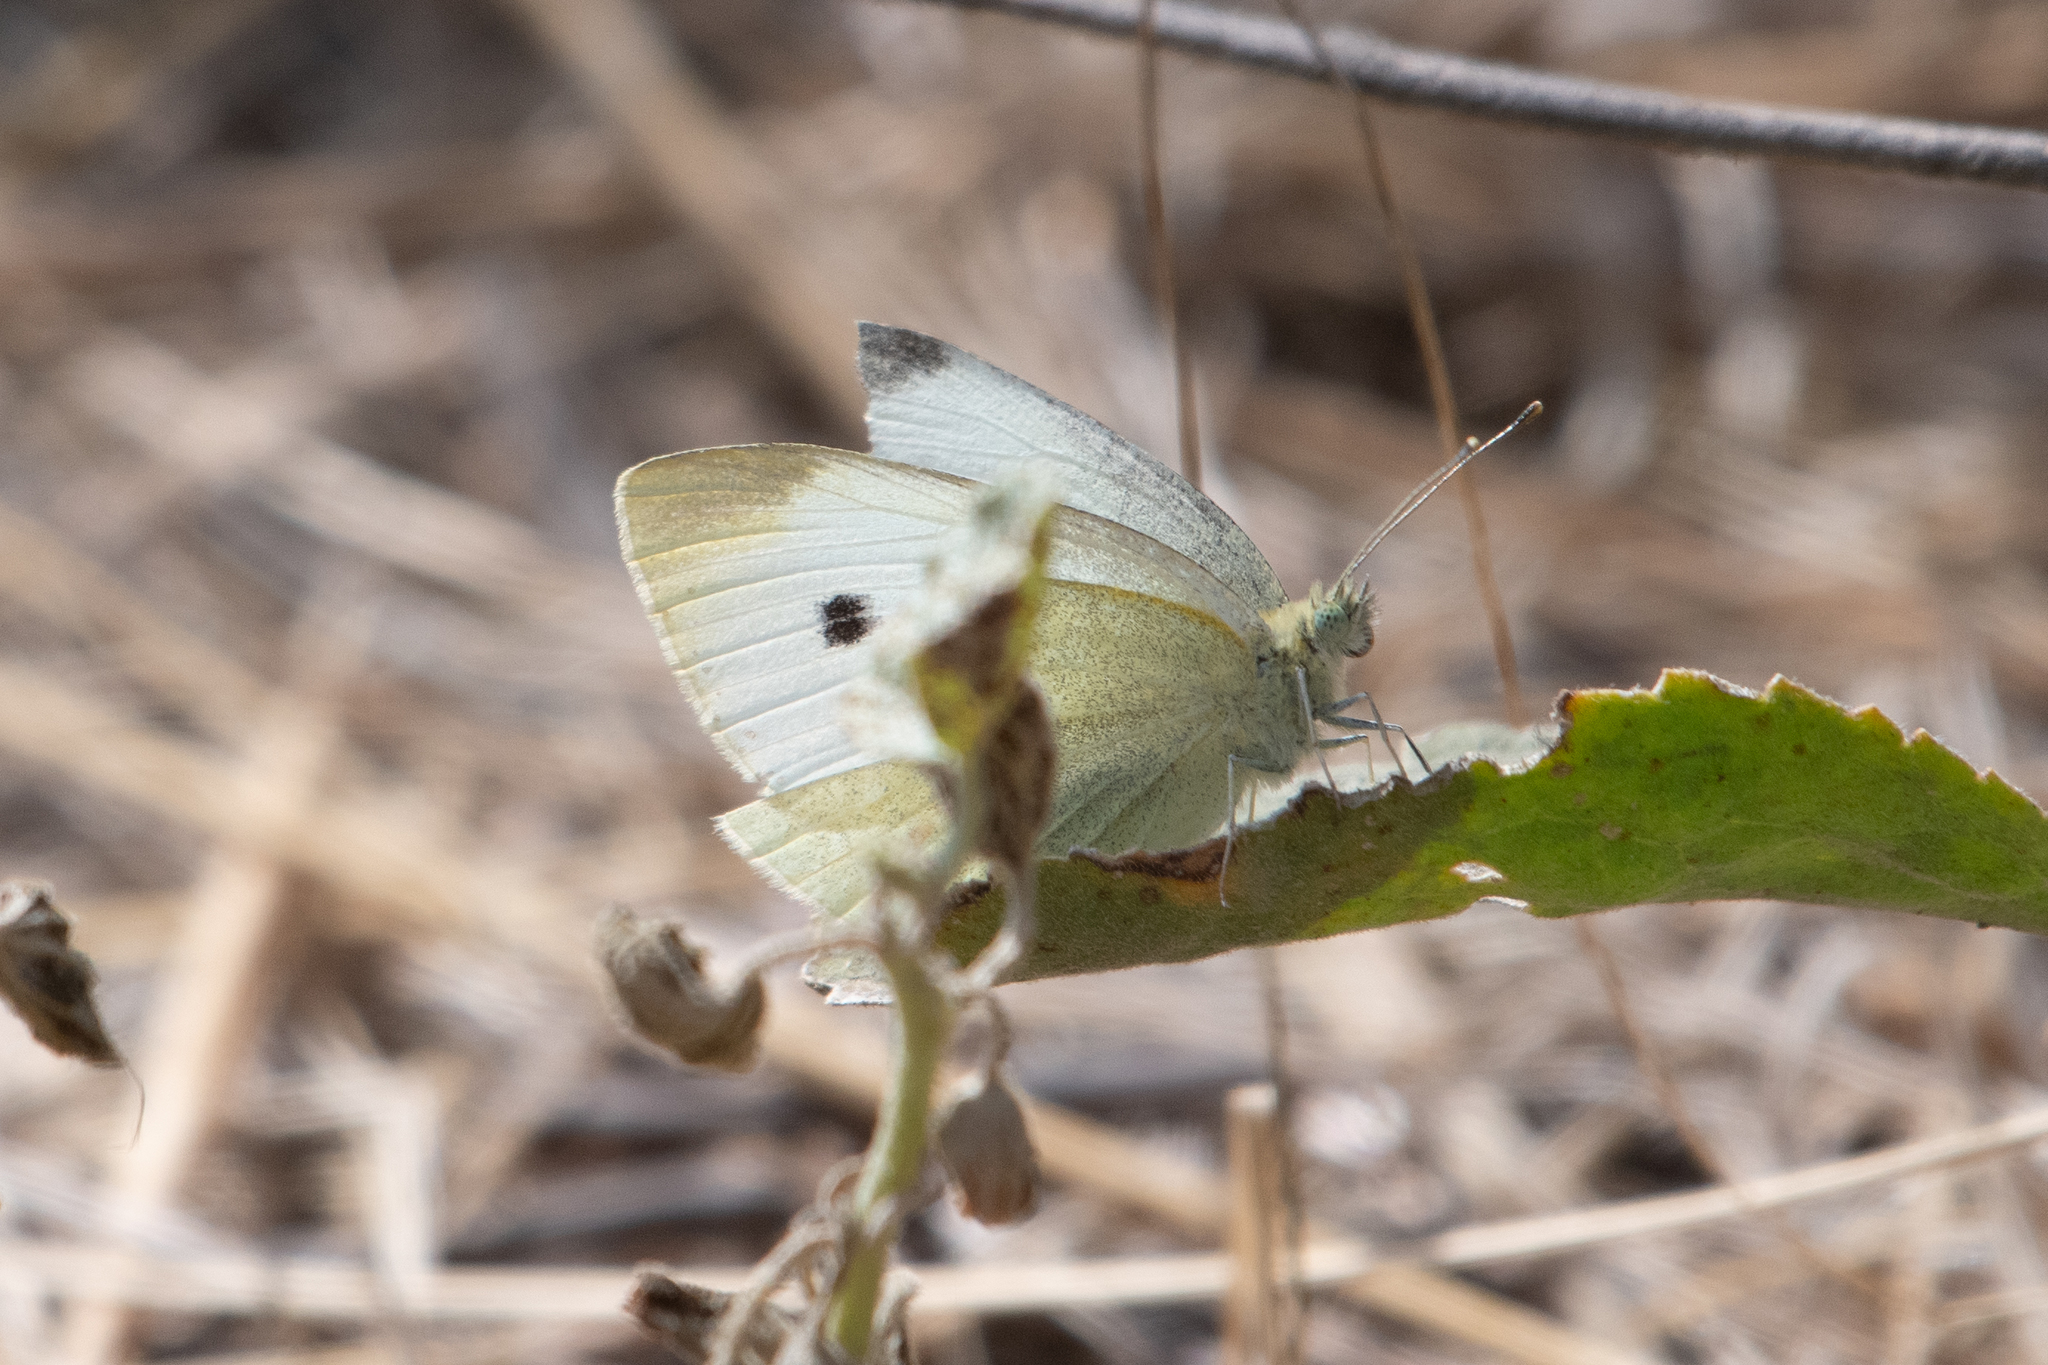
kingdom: Animalia
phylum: Arthropoda
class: Insecta
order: Lepidoptera
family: Pieridae
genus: Pieris
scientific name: Pieris rapae
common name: Small white
